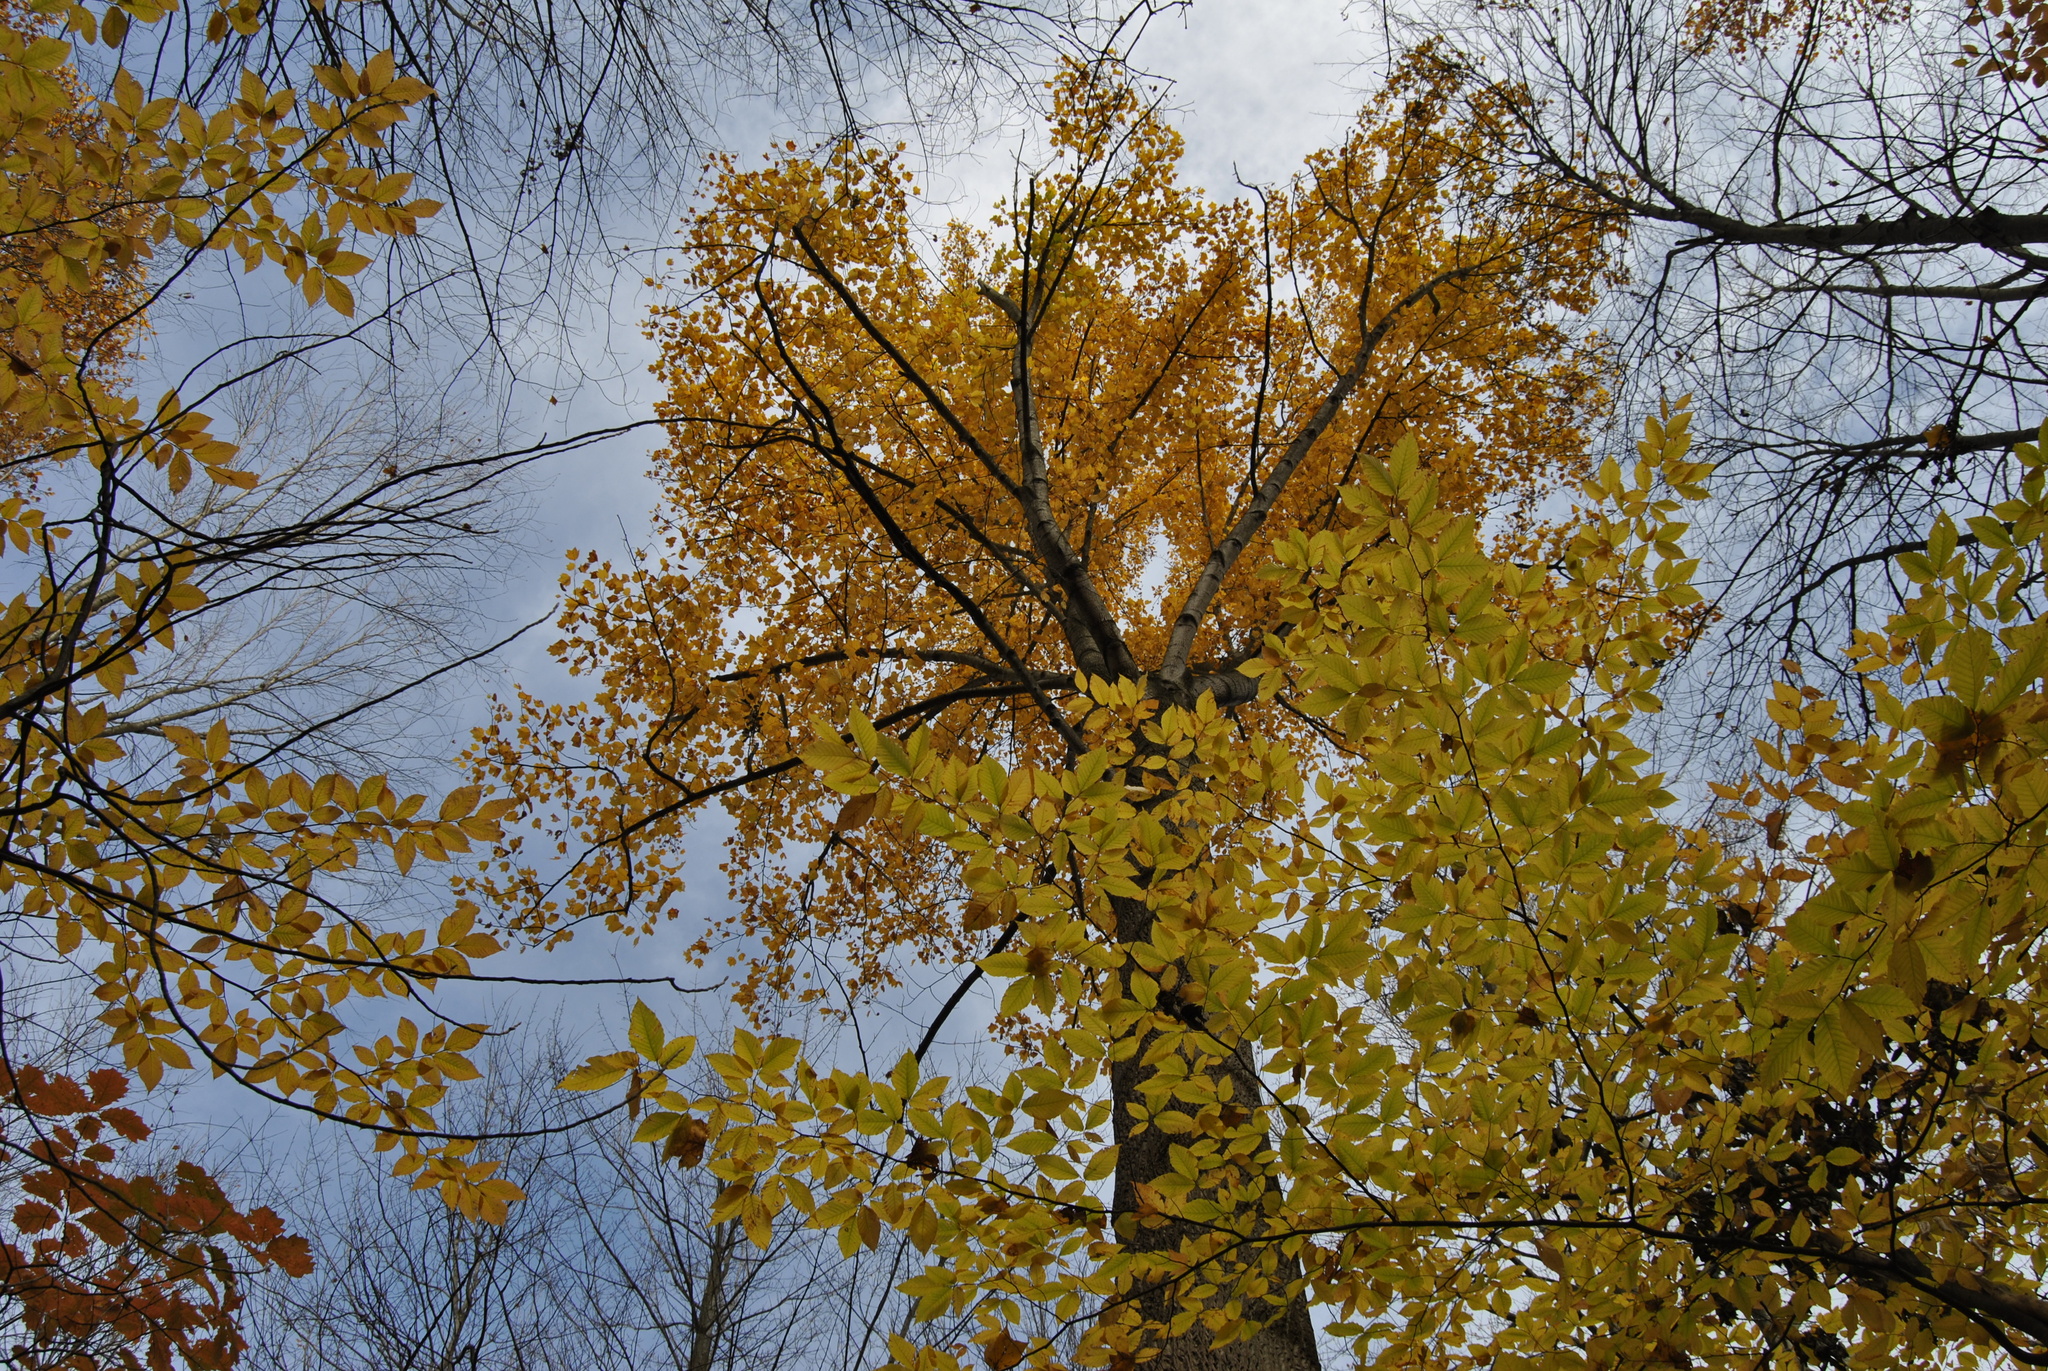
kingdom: Plantae
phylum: Tracheophyta
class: Magnoliopsida
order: Magnoliales
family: Magnoliaceae
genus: Liriodendron
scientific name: Liriodendron tulipifera
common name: Tulip tree
